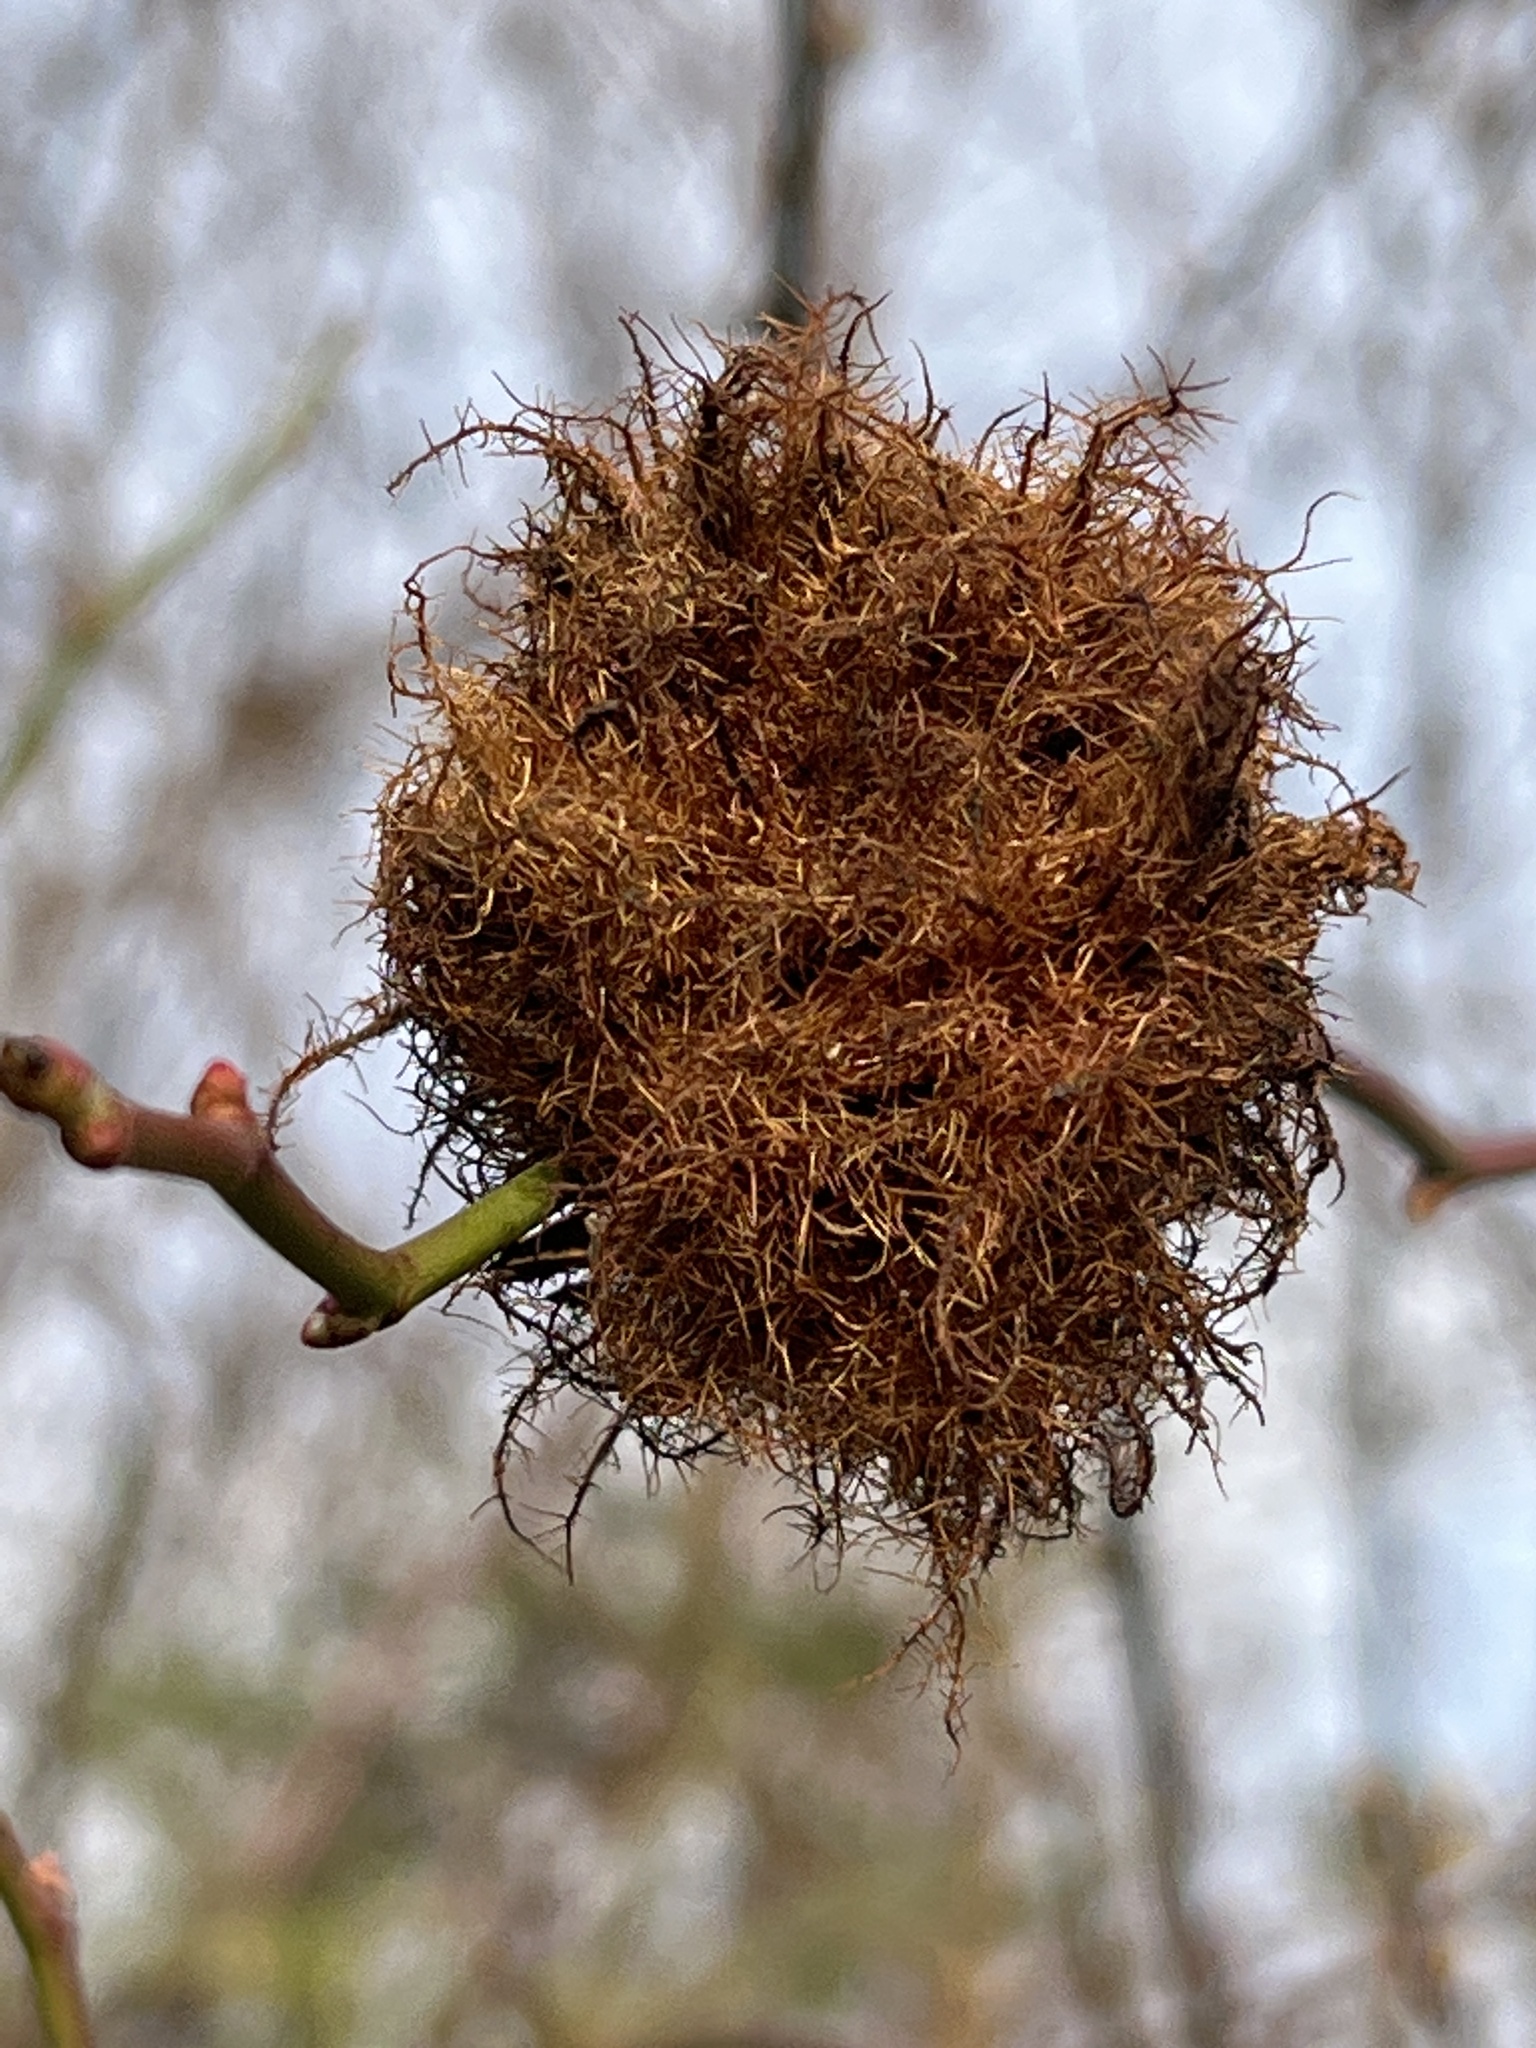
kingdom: Animalia
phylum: Arthropoda
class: Insecta
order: Hymenoptera
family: Cynipidae
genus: Diplolepis
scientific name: Diplolepis rosae
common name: Bedeguar gall
